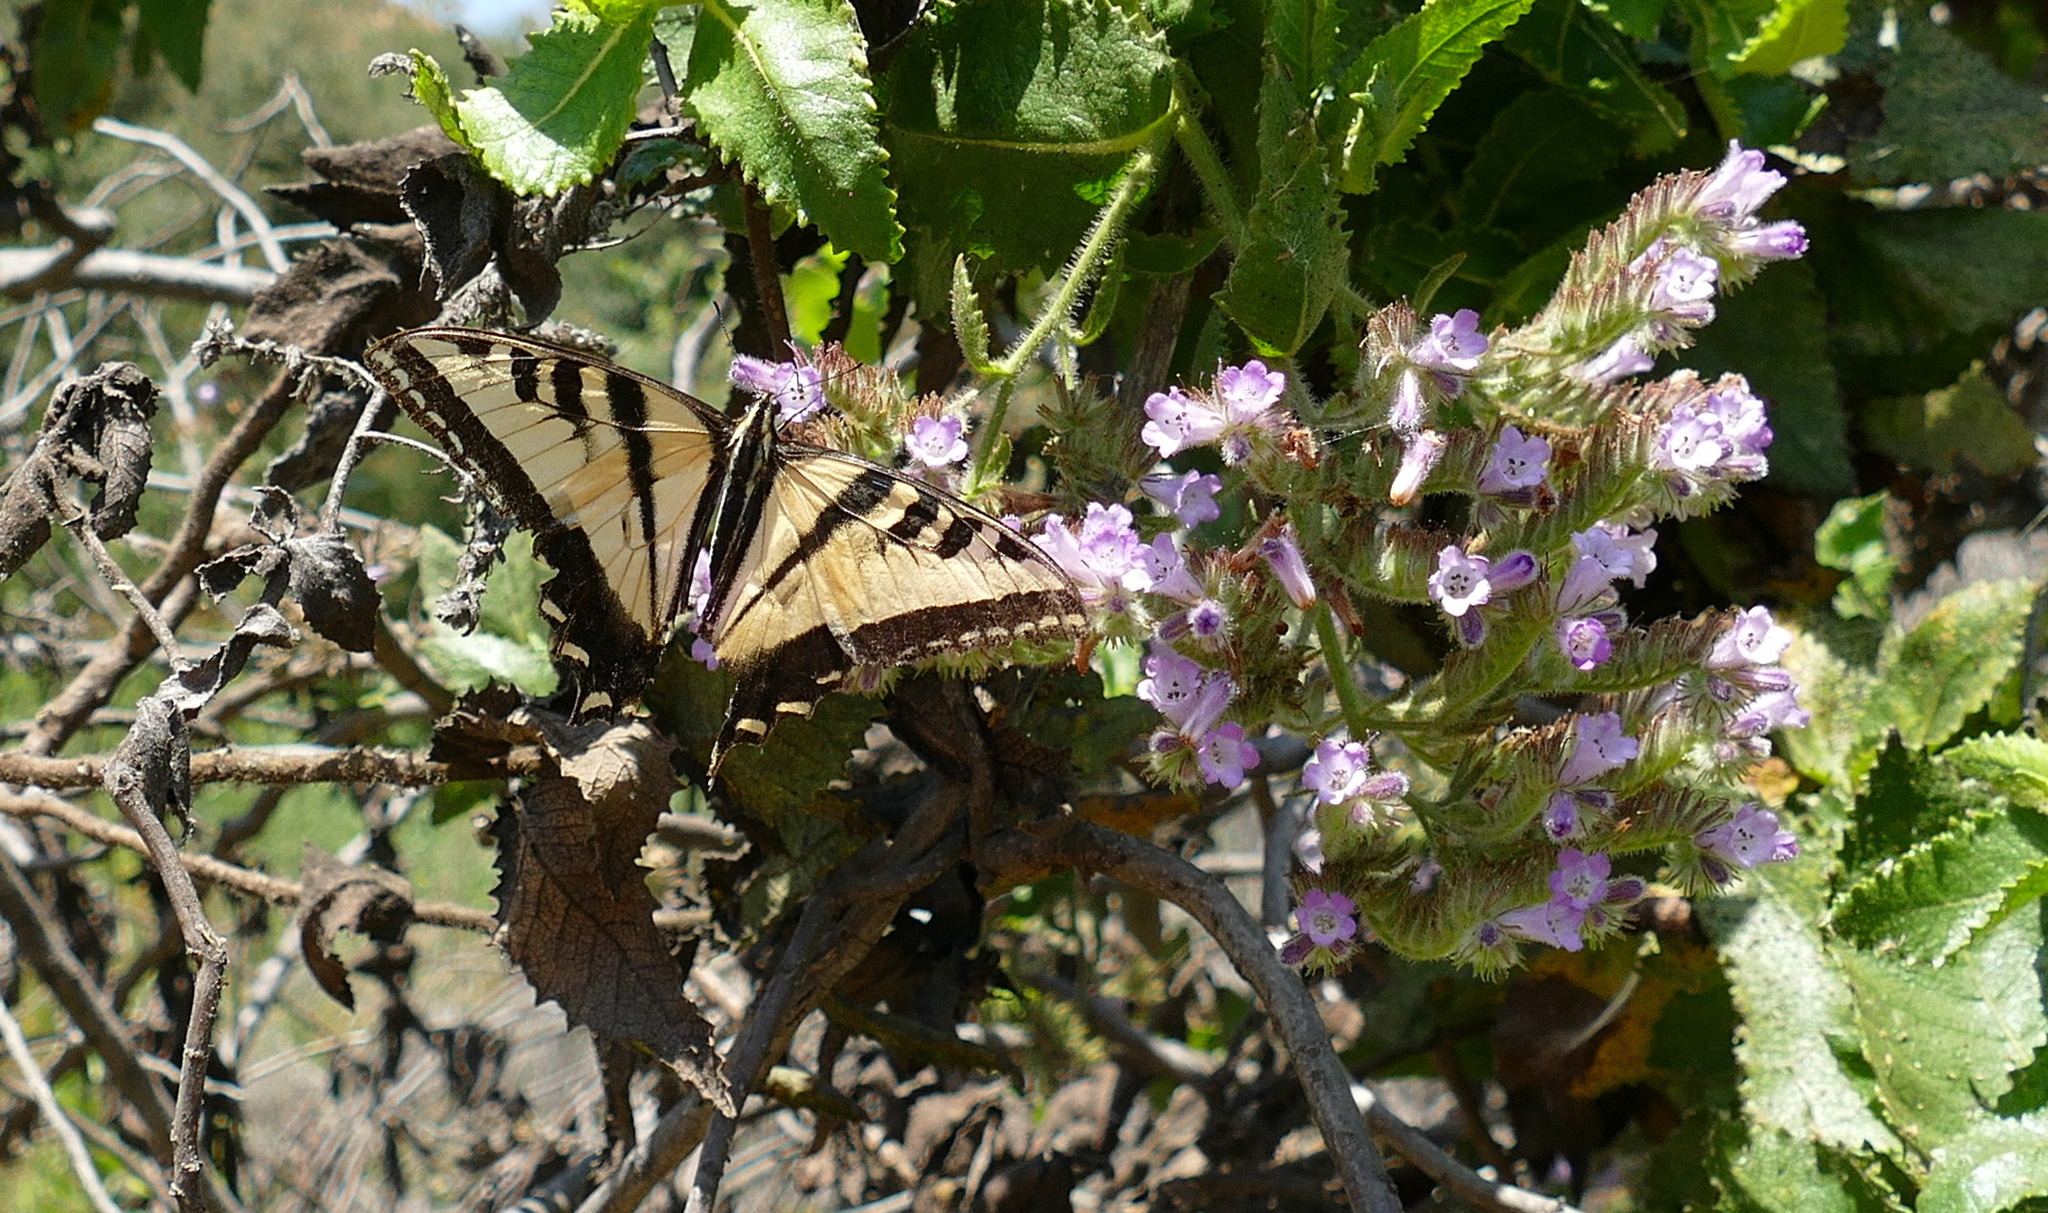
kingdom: Animalia
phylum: Arthropoda
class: Insecta
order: Lepidoptera
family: Papilionidae
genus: Papilio
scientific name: Papilio rutulus
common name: Western tiger swallowtail
